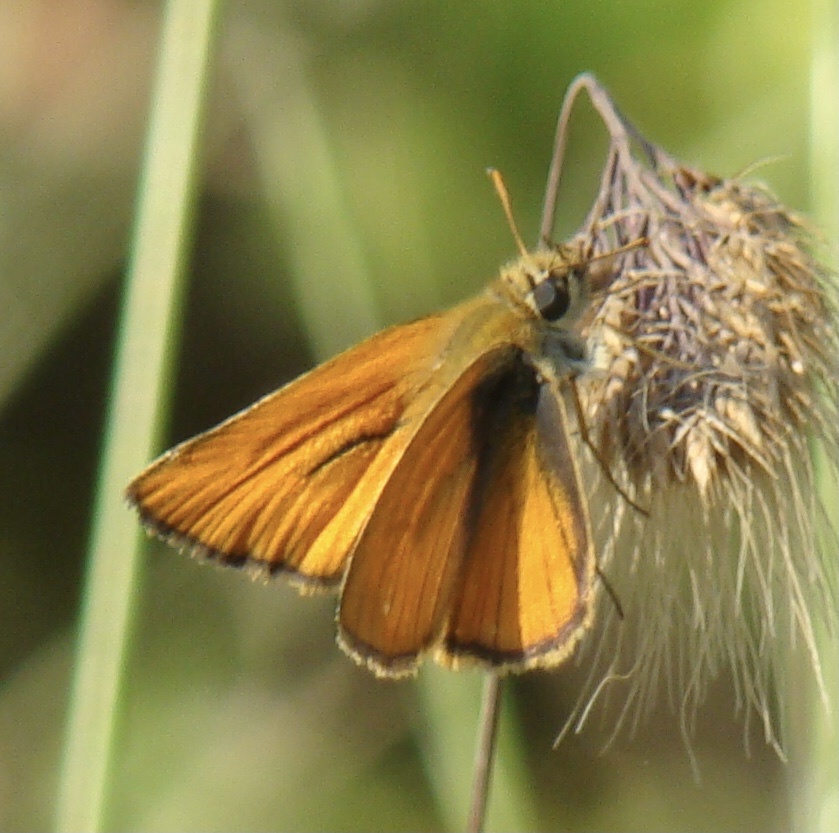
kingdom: Animalia
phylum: Arthropoda
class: Insecta
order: Lepidoptera
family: Hesperiidae
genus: Thymelicus
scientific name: Thymelicus sylvestris
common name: Small skipper
